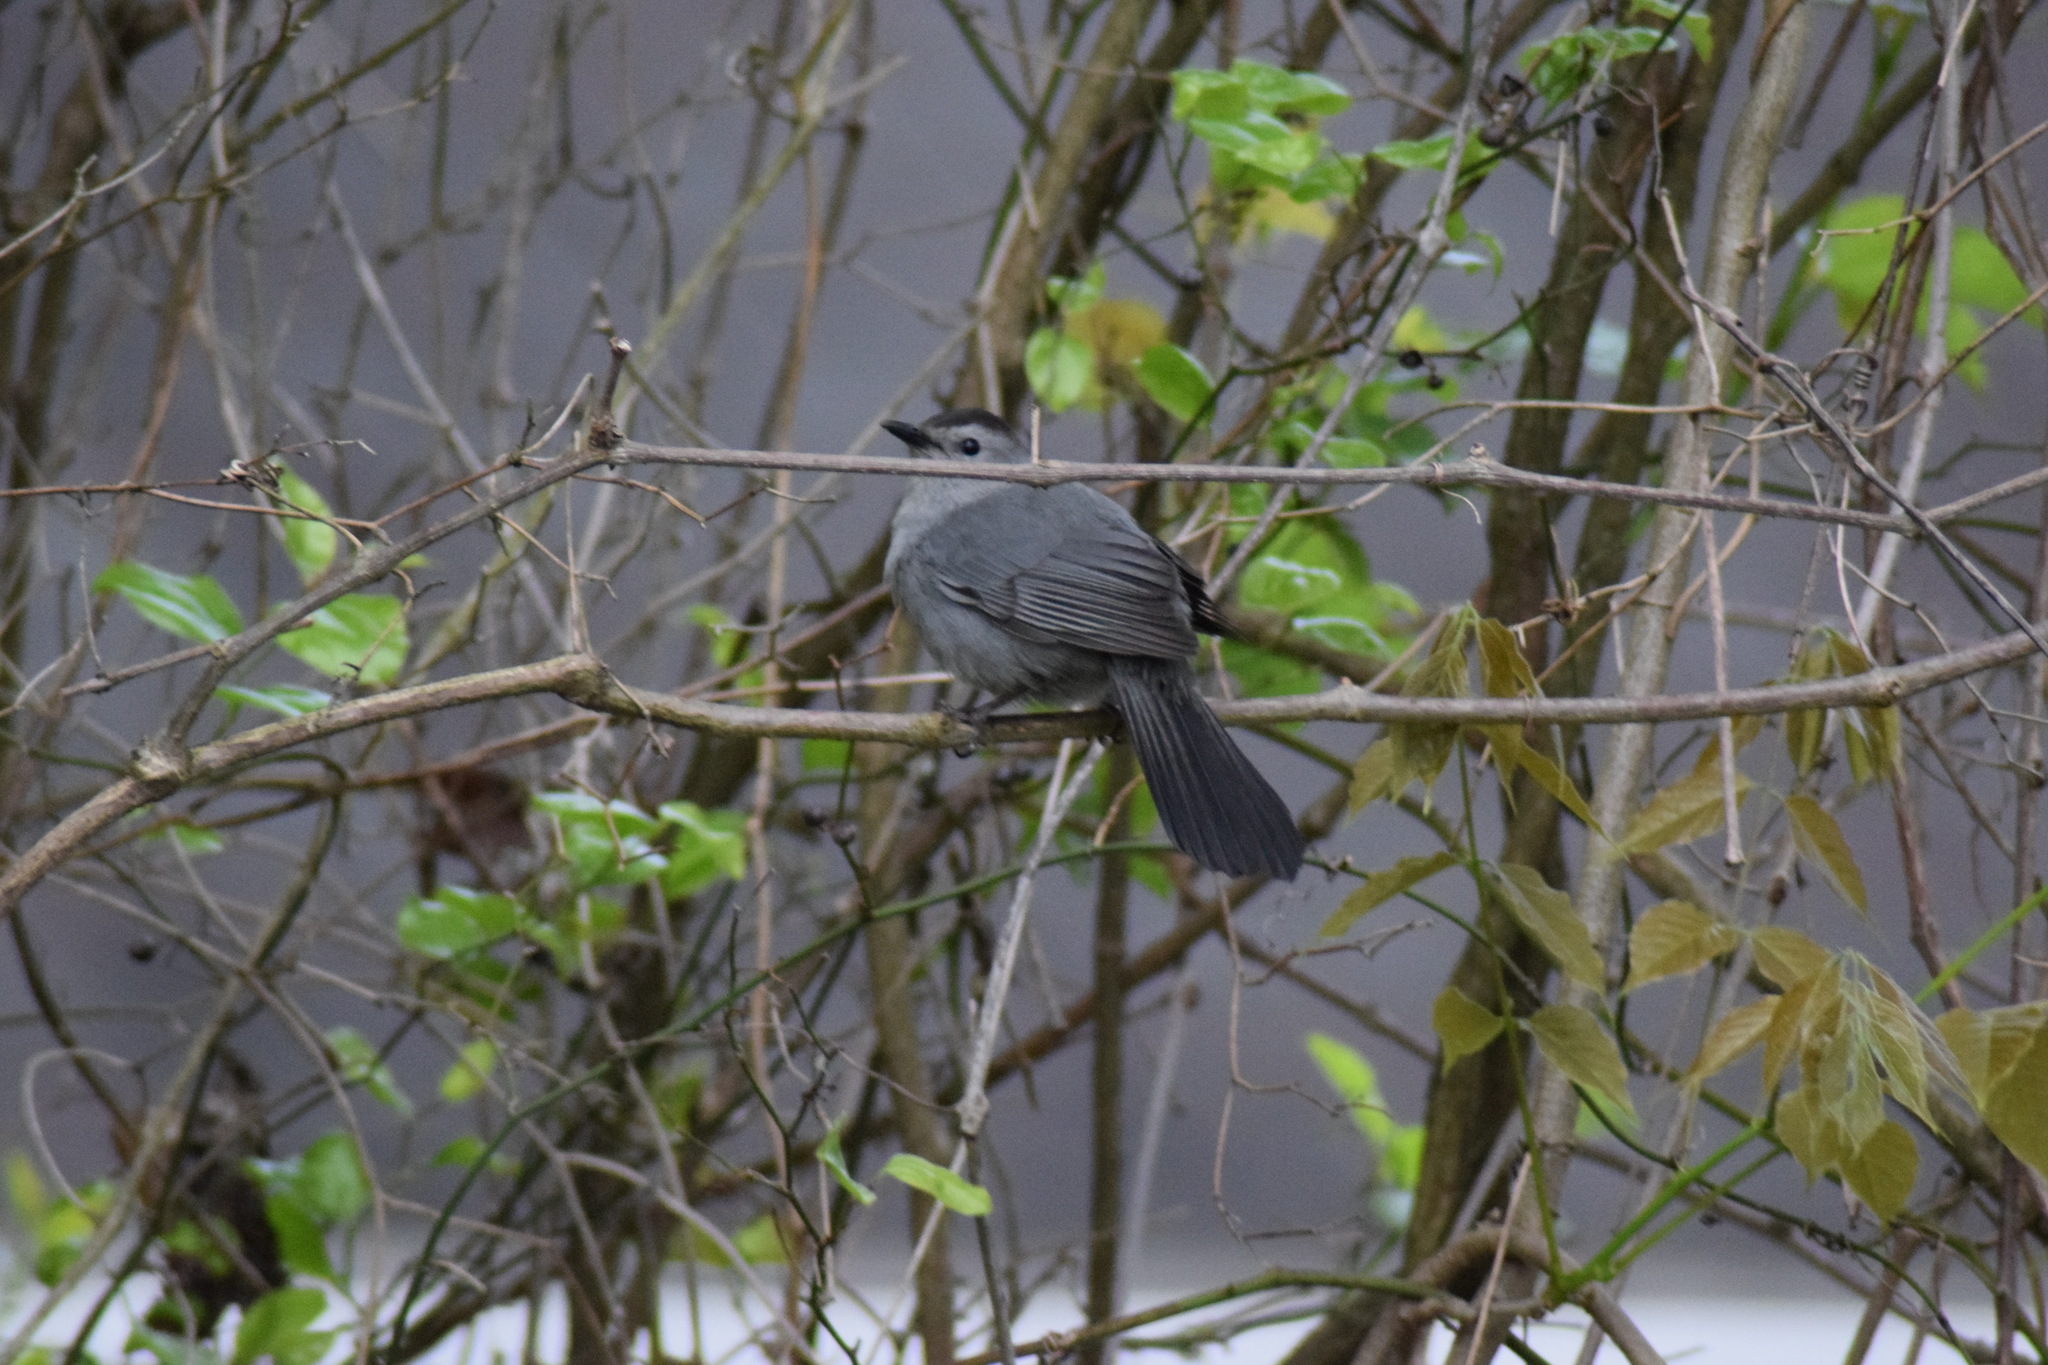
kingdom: Animalia
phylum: Chordata
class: Aves
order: Passeriformes
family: Mimidae
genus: Dumetella
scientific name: Dumetella carolinensis
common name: Gray catbird
